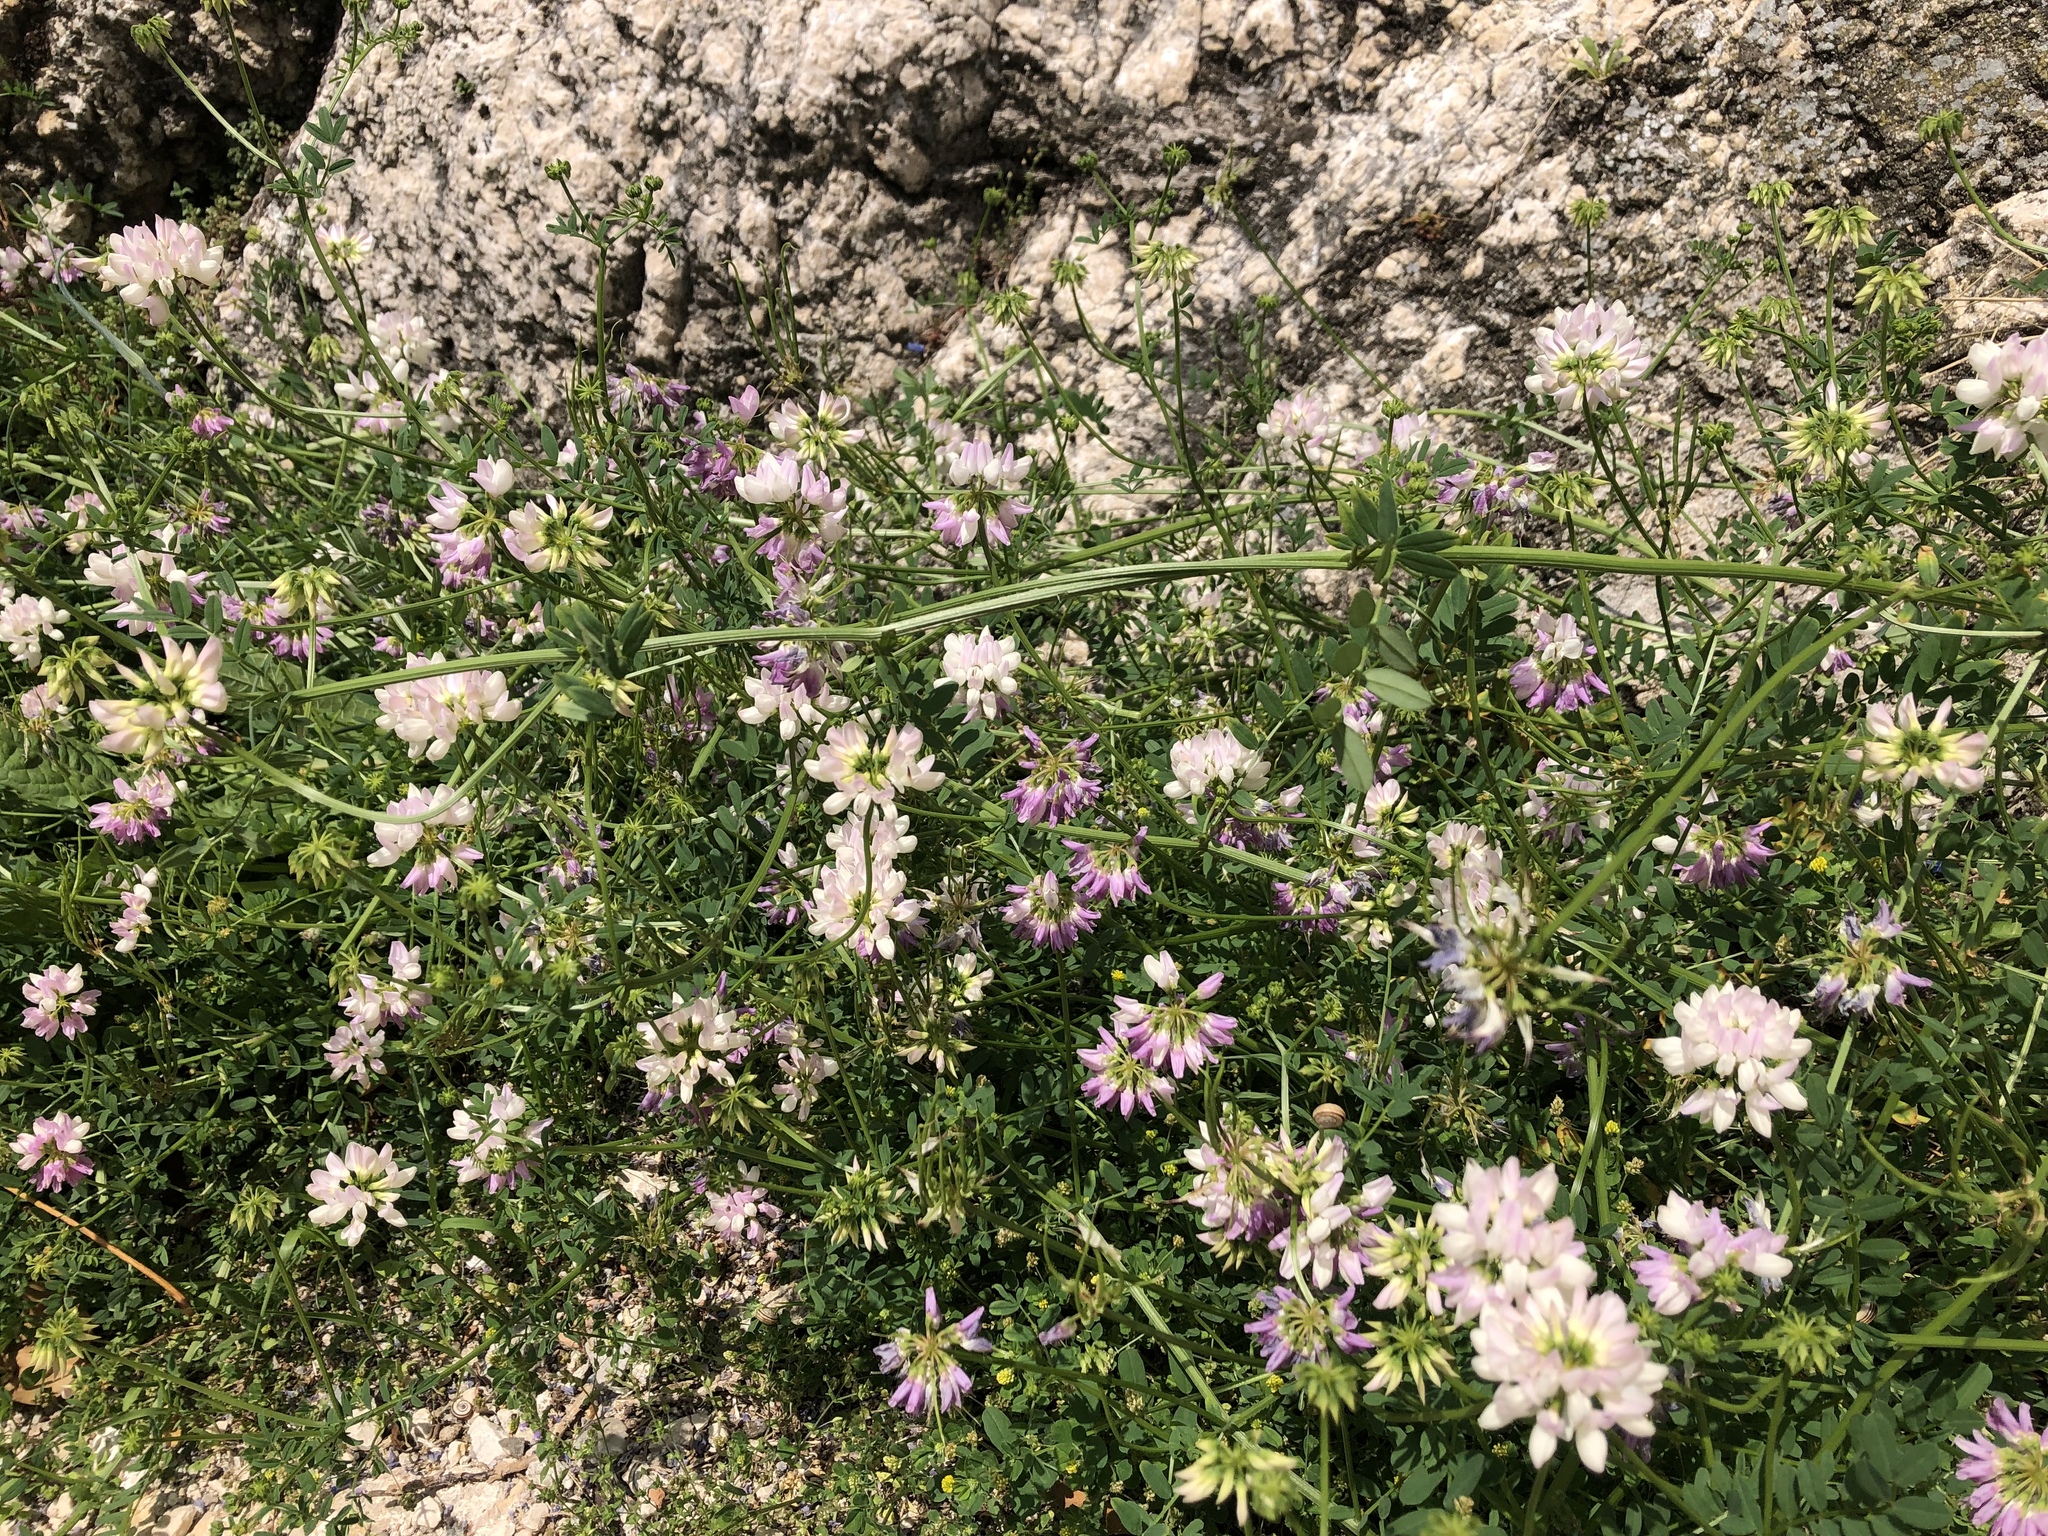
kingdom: Plantae
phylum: Tracheophyta
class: Magnoliopsida
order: Fabales
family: Fabaceae
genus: Coronilla
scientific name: Coronilla varia
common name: Crownvetch
